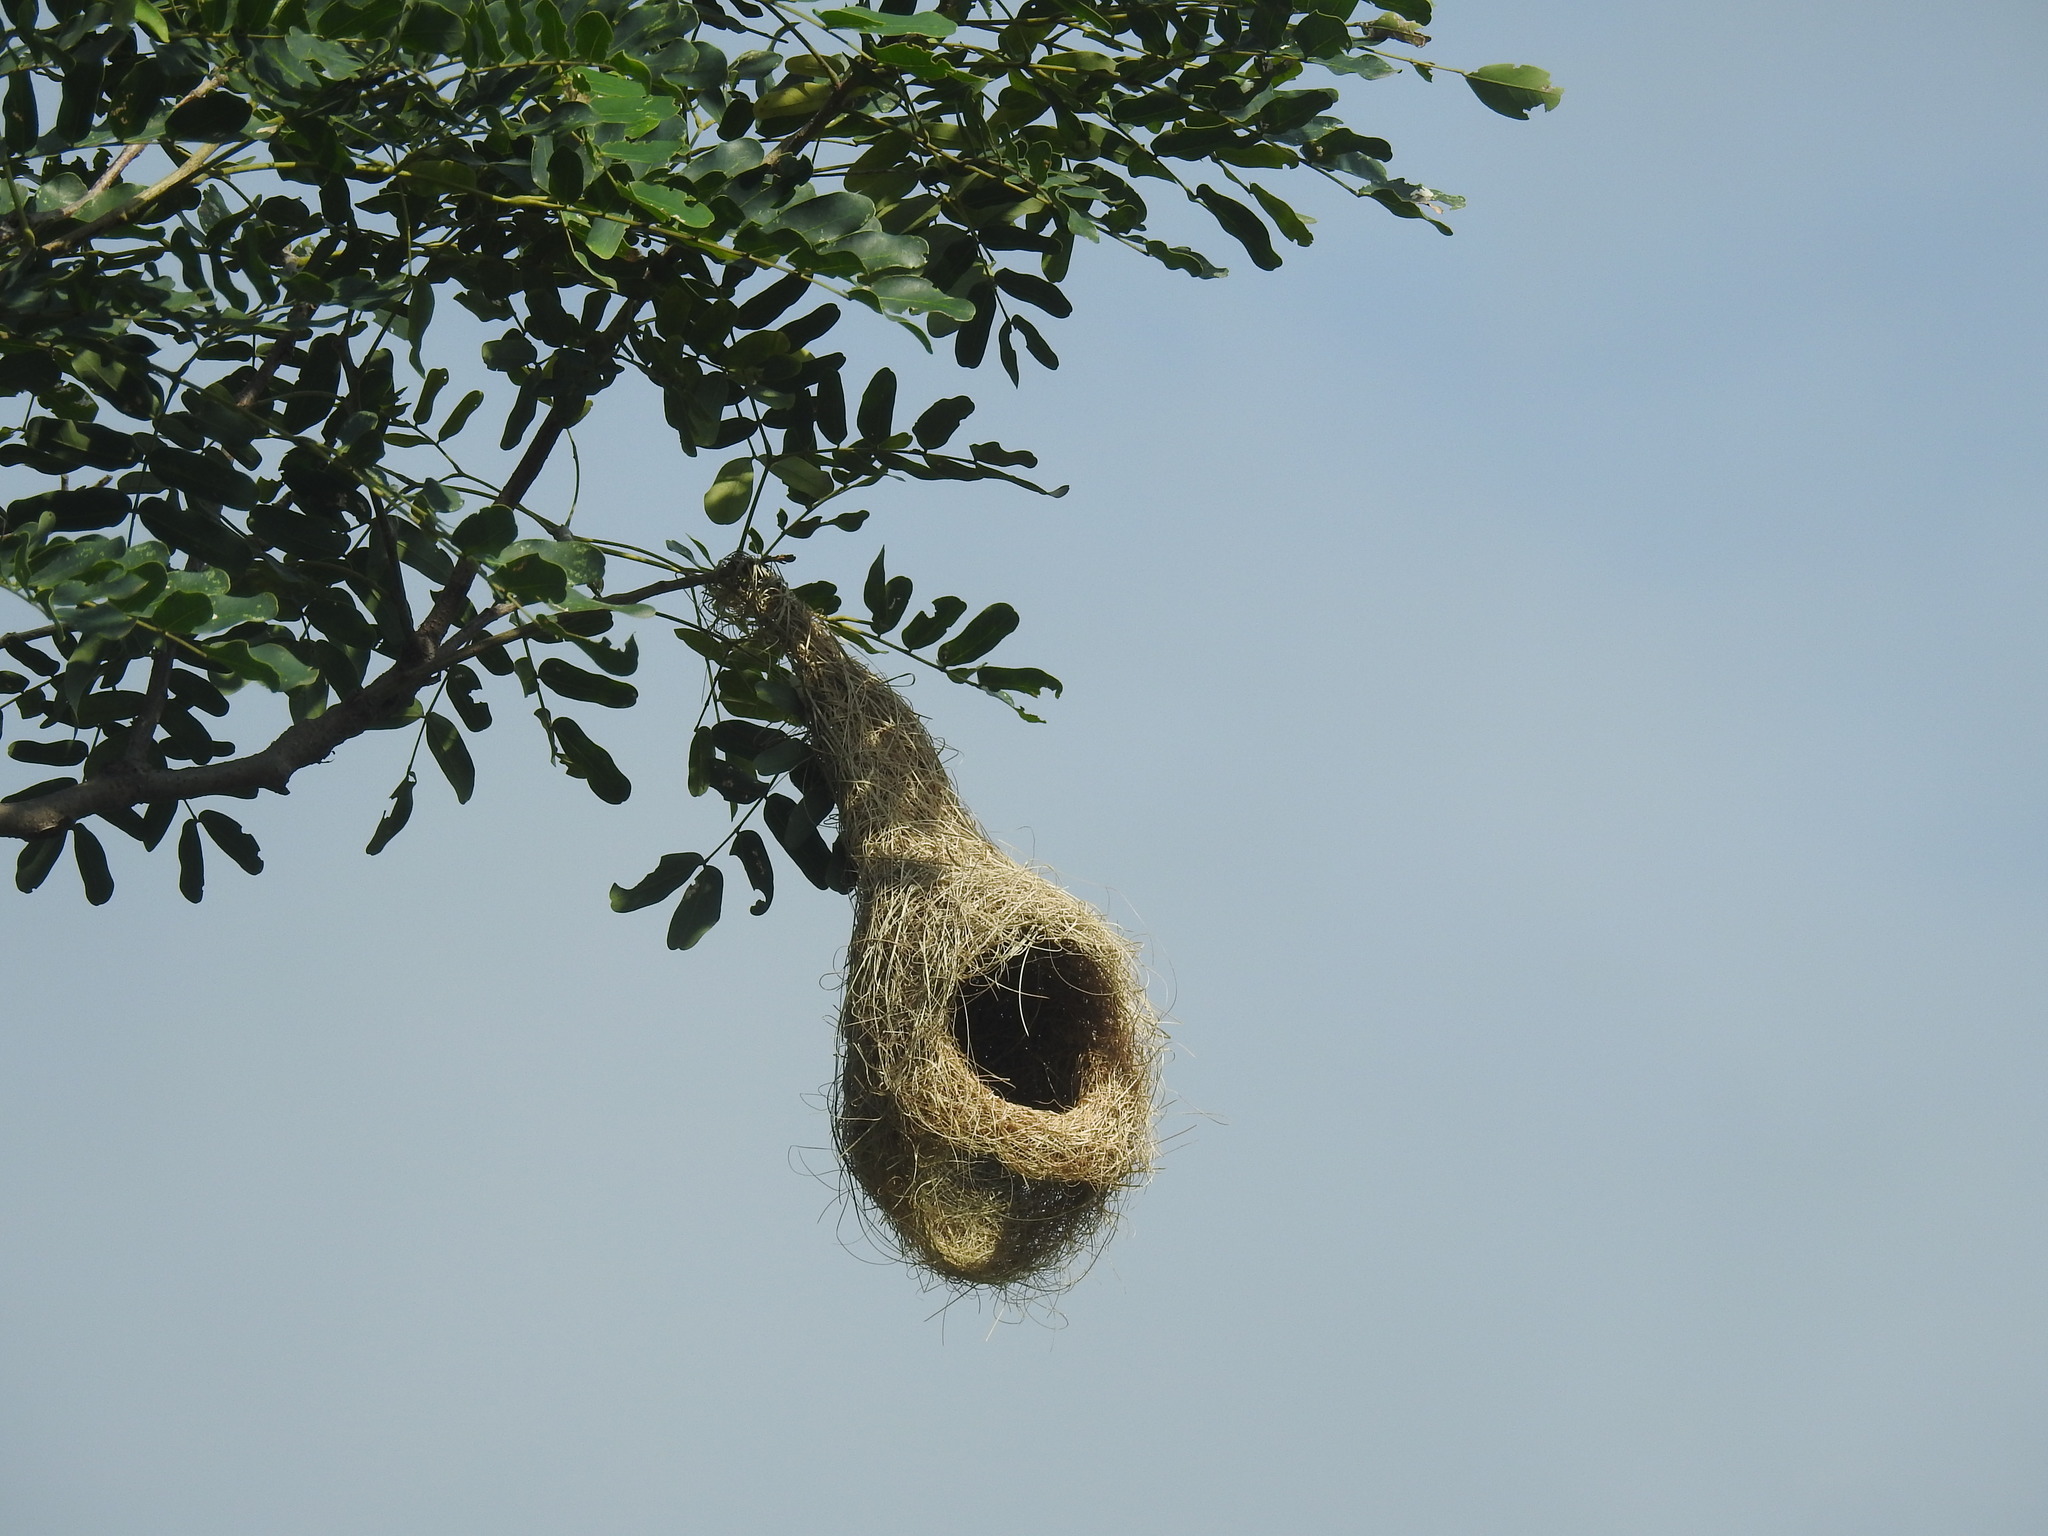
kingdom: Animalia
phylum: Chordata
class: Aves
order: Passeriformes
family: Ploceidae
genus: Ploceus
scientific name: Ploceus philippinus
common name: Baya weaver
